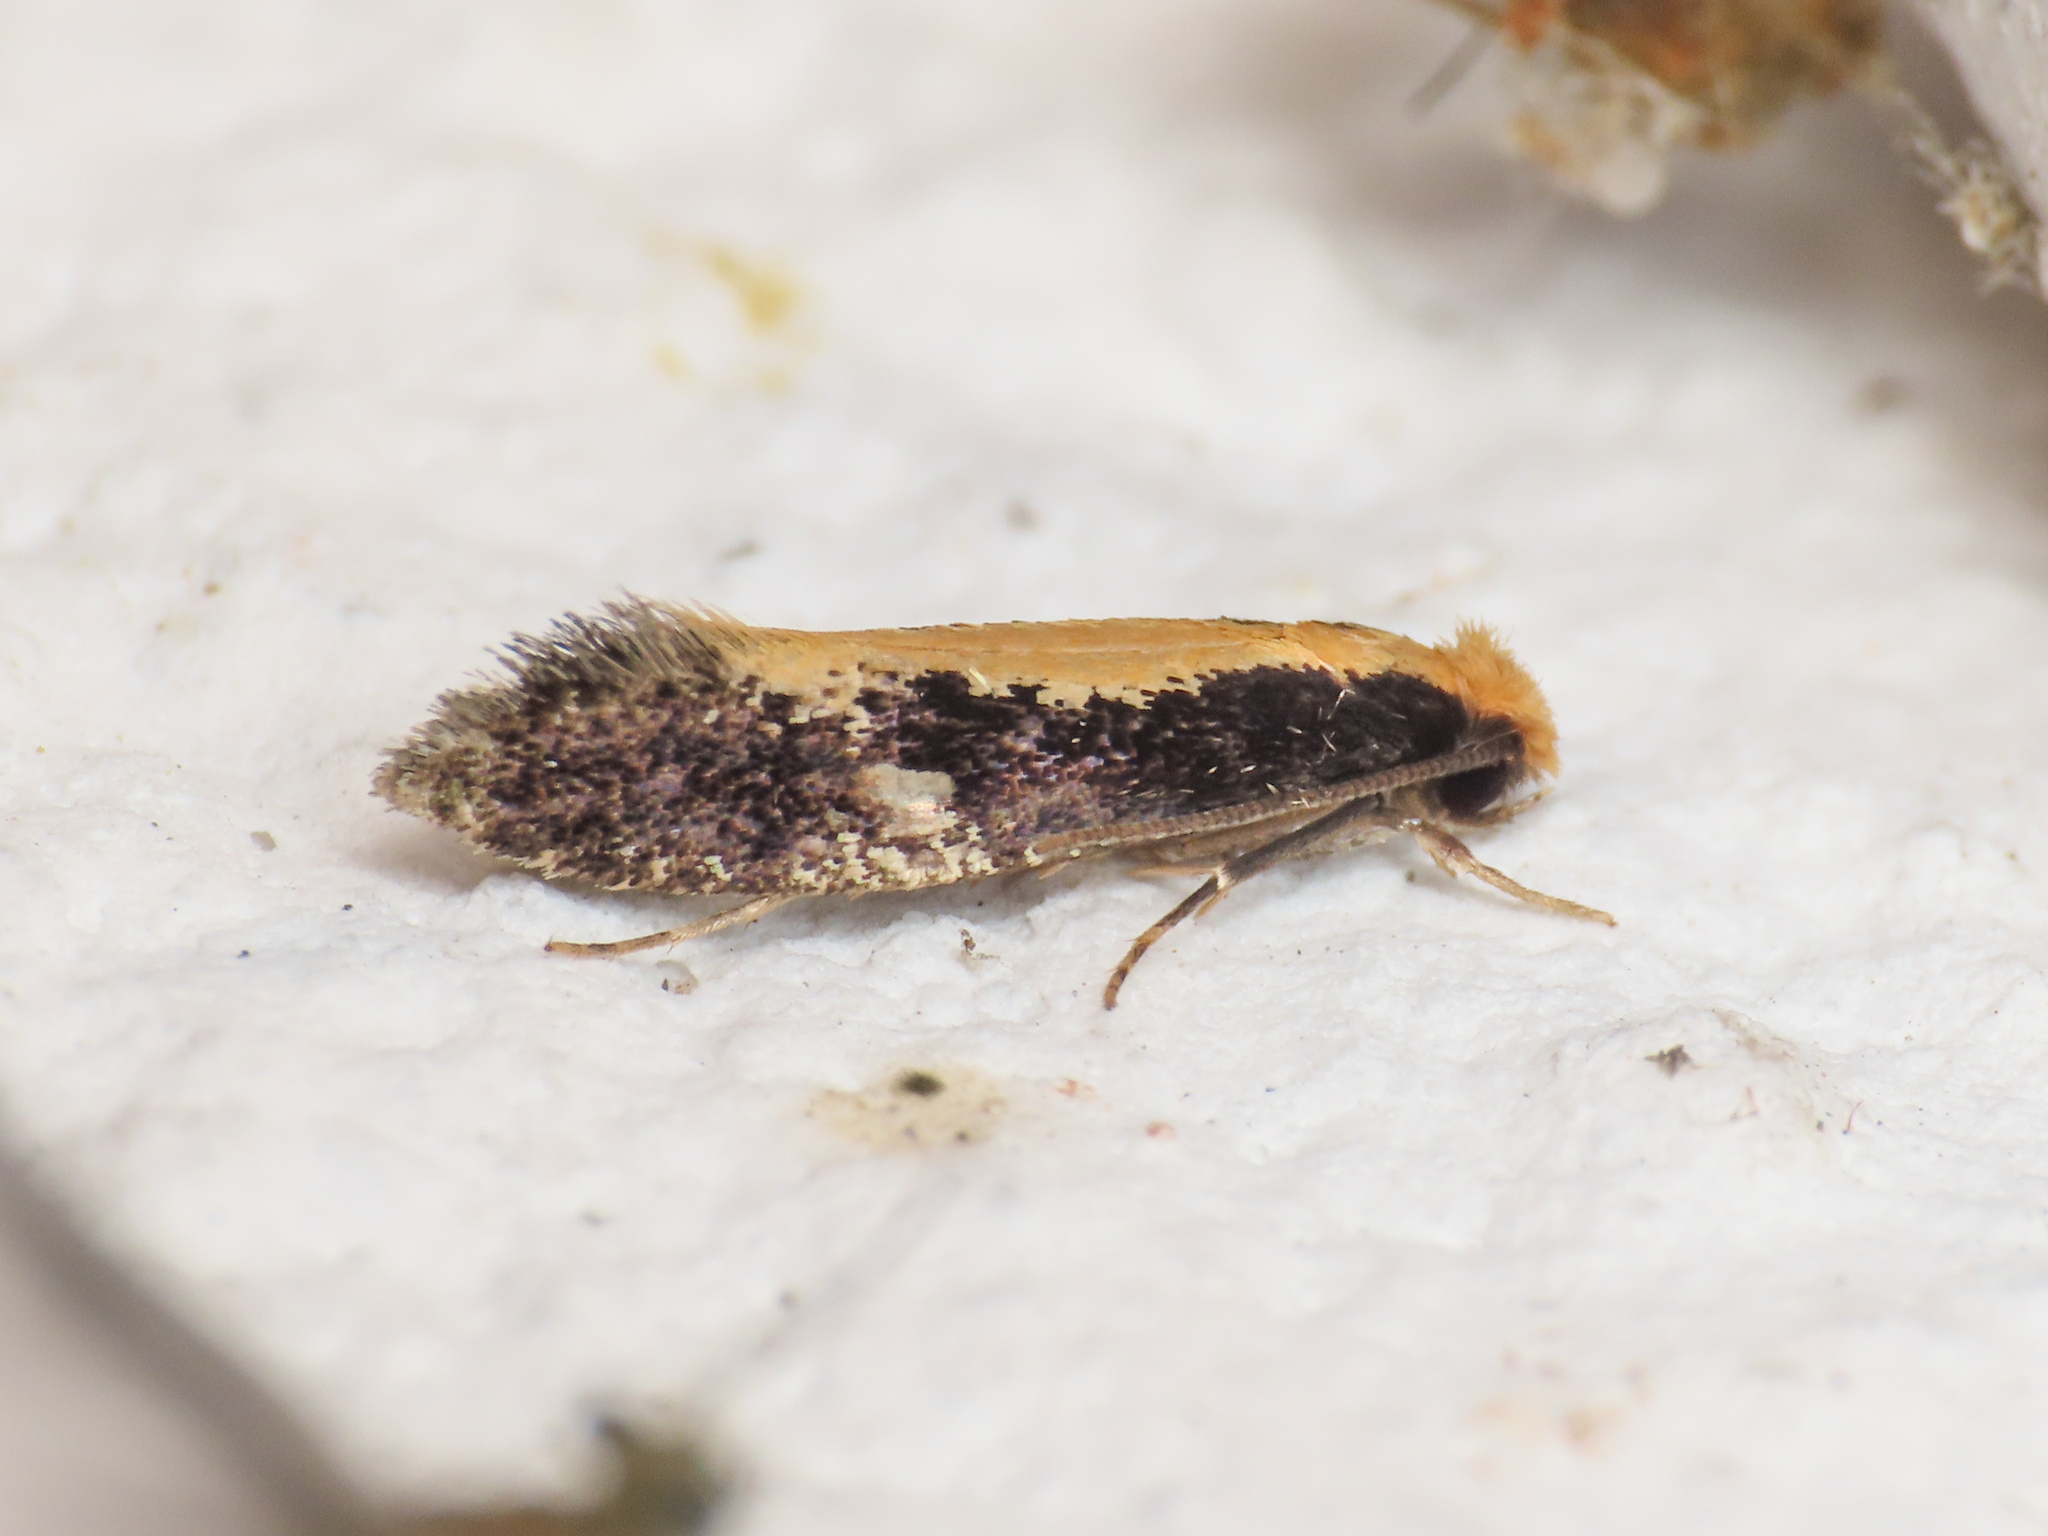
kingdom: Animalia
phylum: Arthropoda
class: Insecta
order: Lepidoptera
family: Tineidae
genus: Monopis
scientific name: Monopis crocicapitella
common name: Moth
